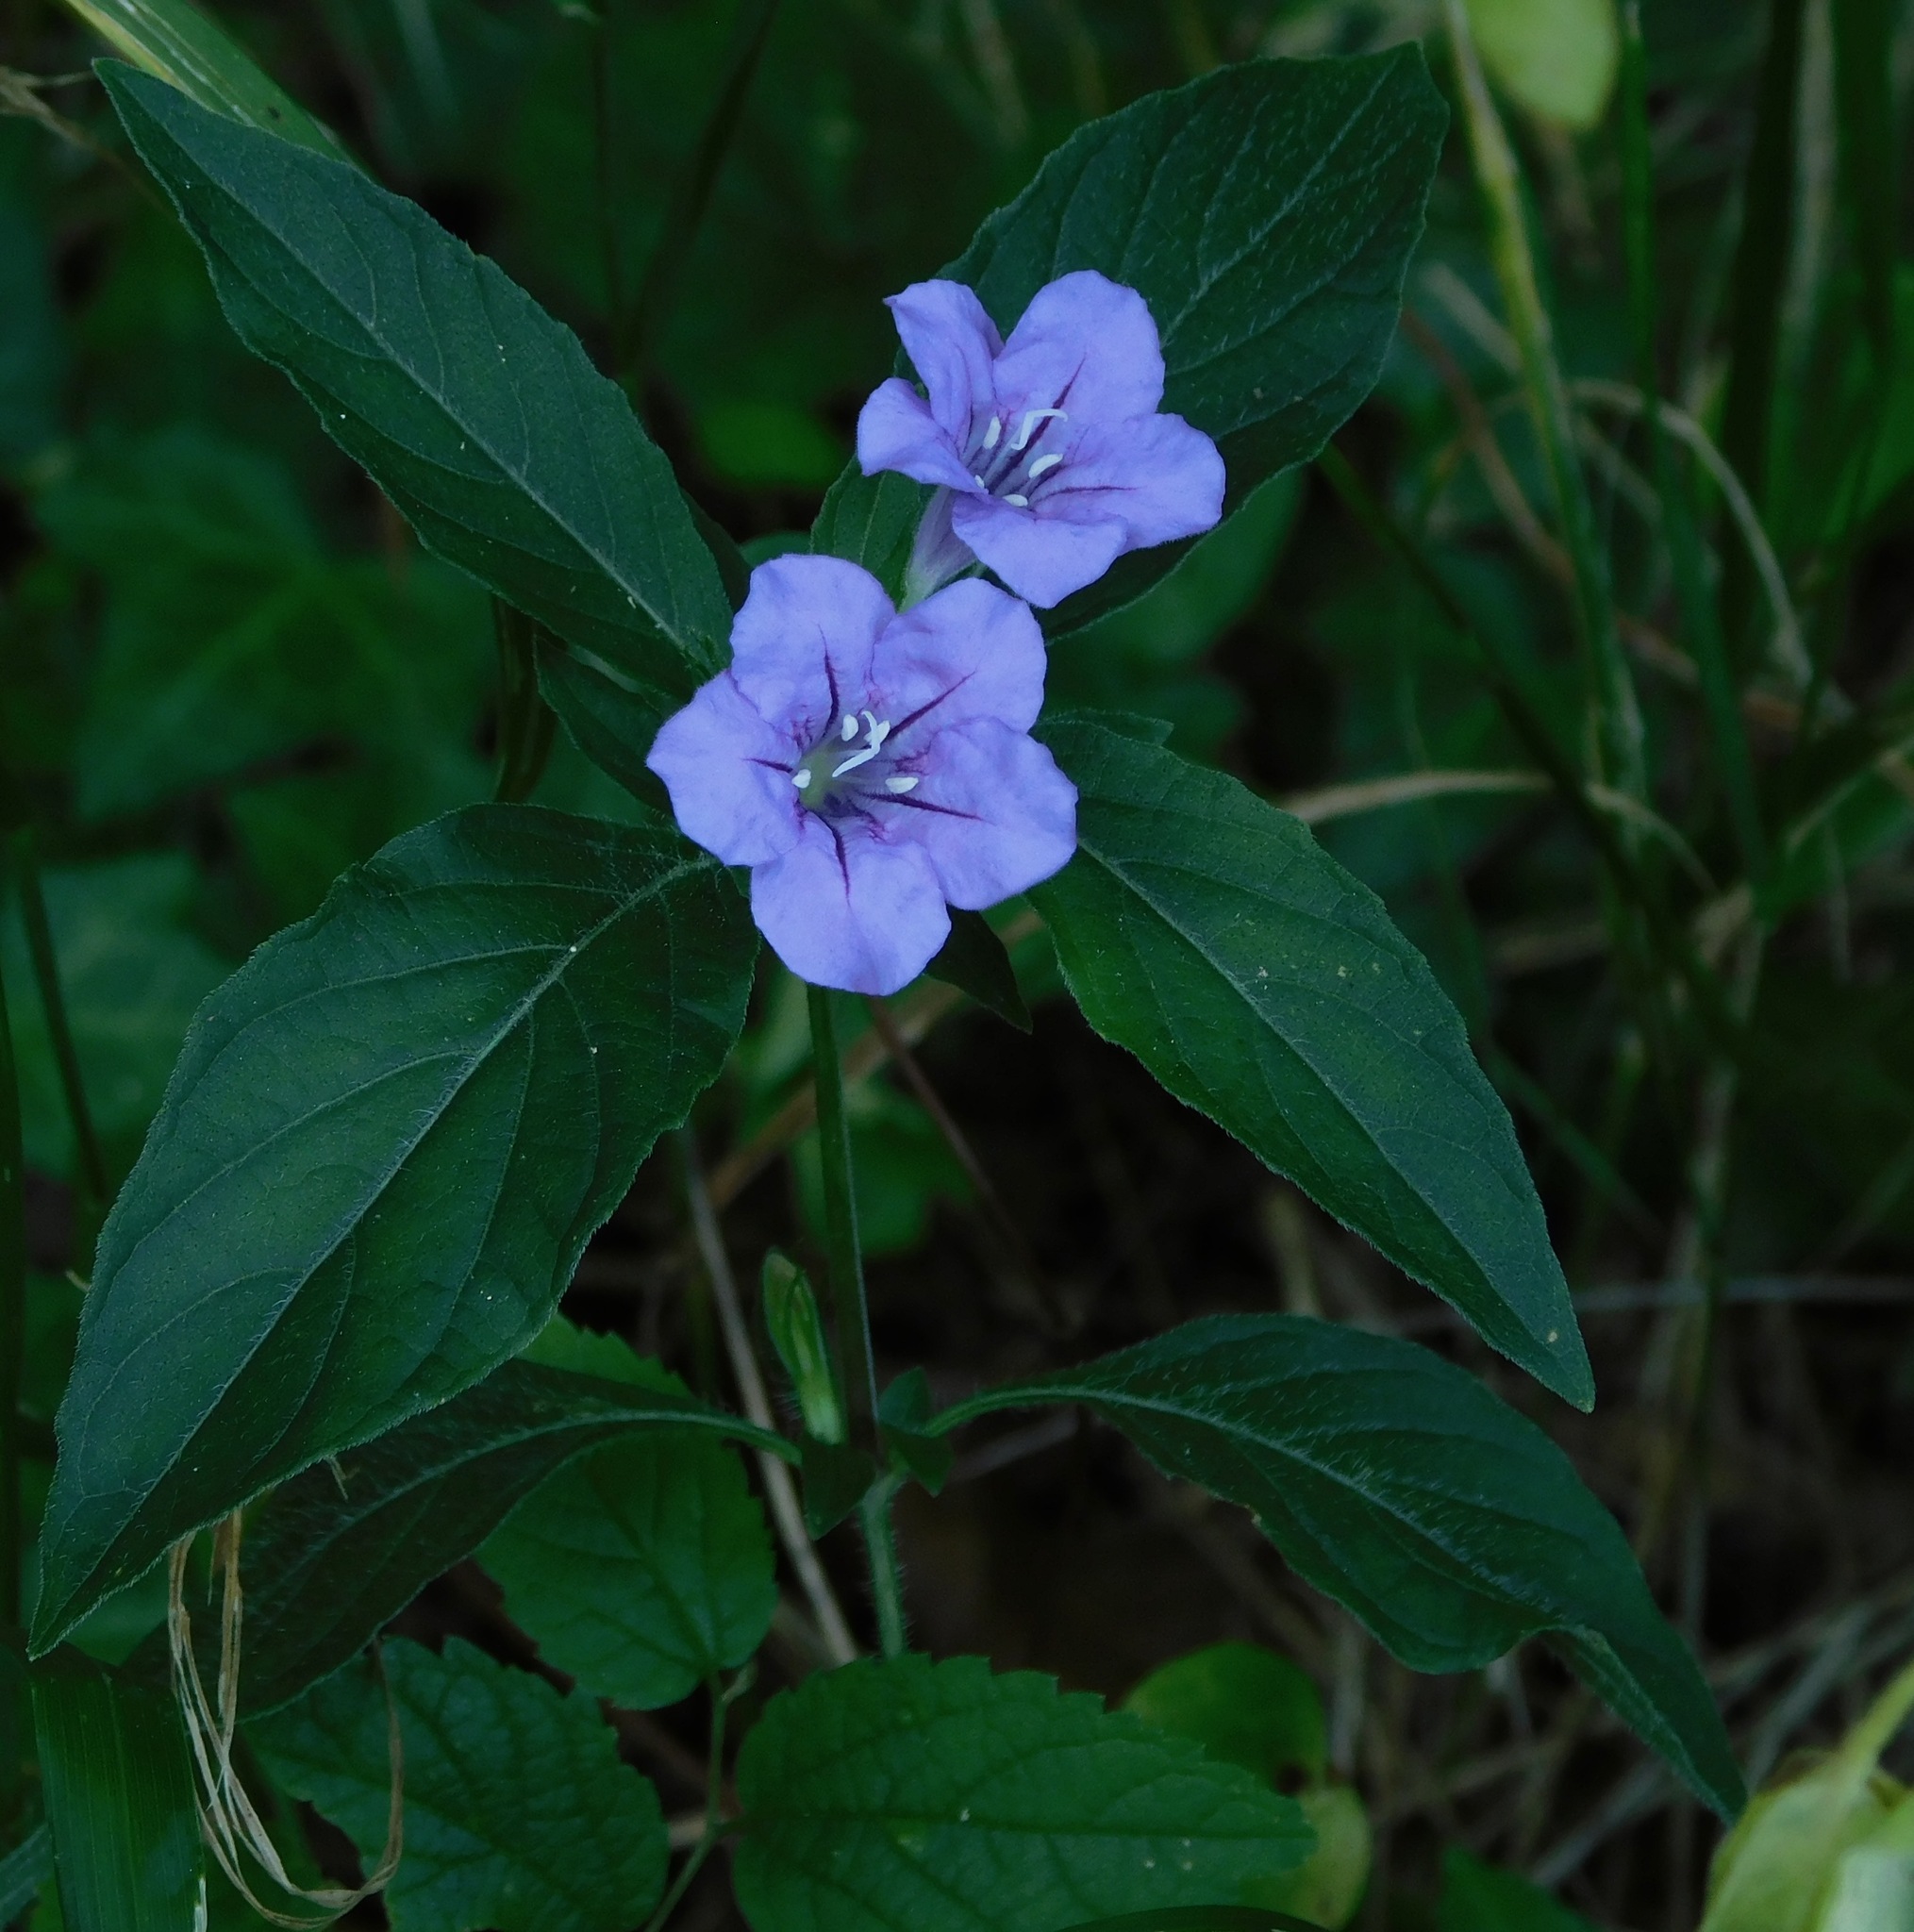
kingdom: Plantae
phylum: Tracheophyta
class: Magnoliopsida
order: Lamiales
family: Acanthaceae
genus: Ruellia
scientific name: Ruellia caroliniensis
